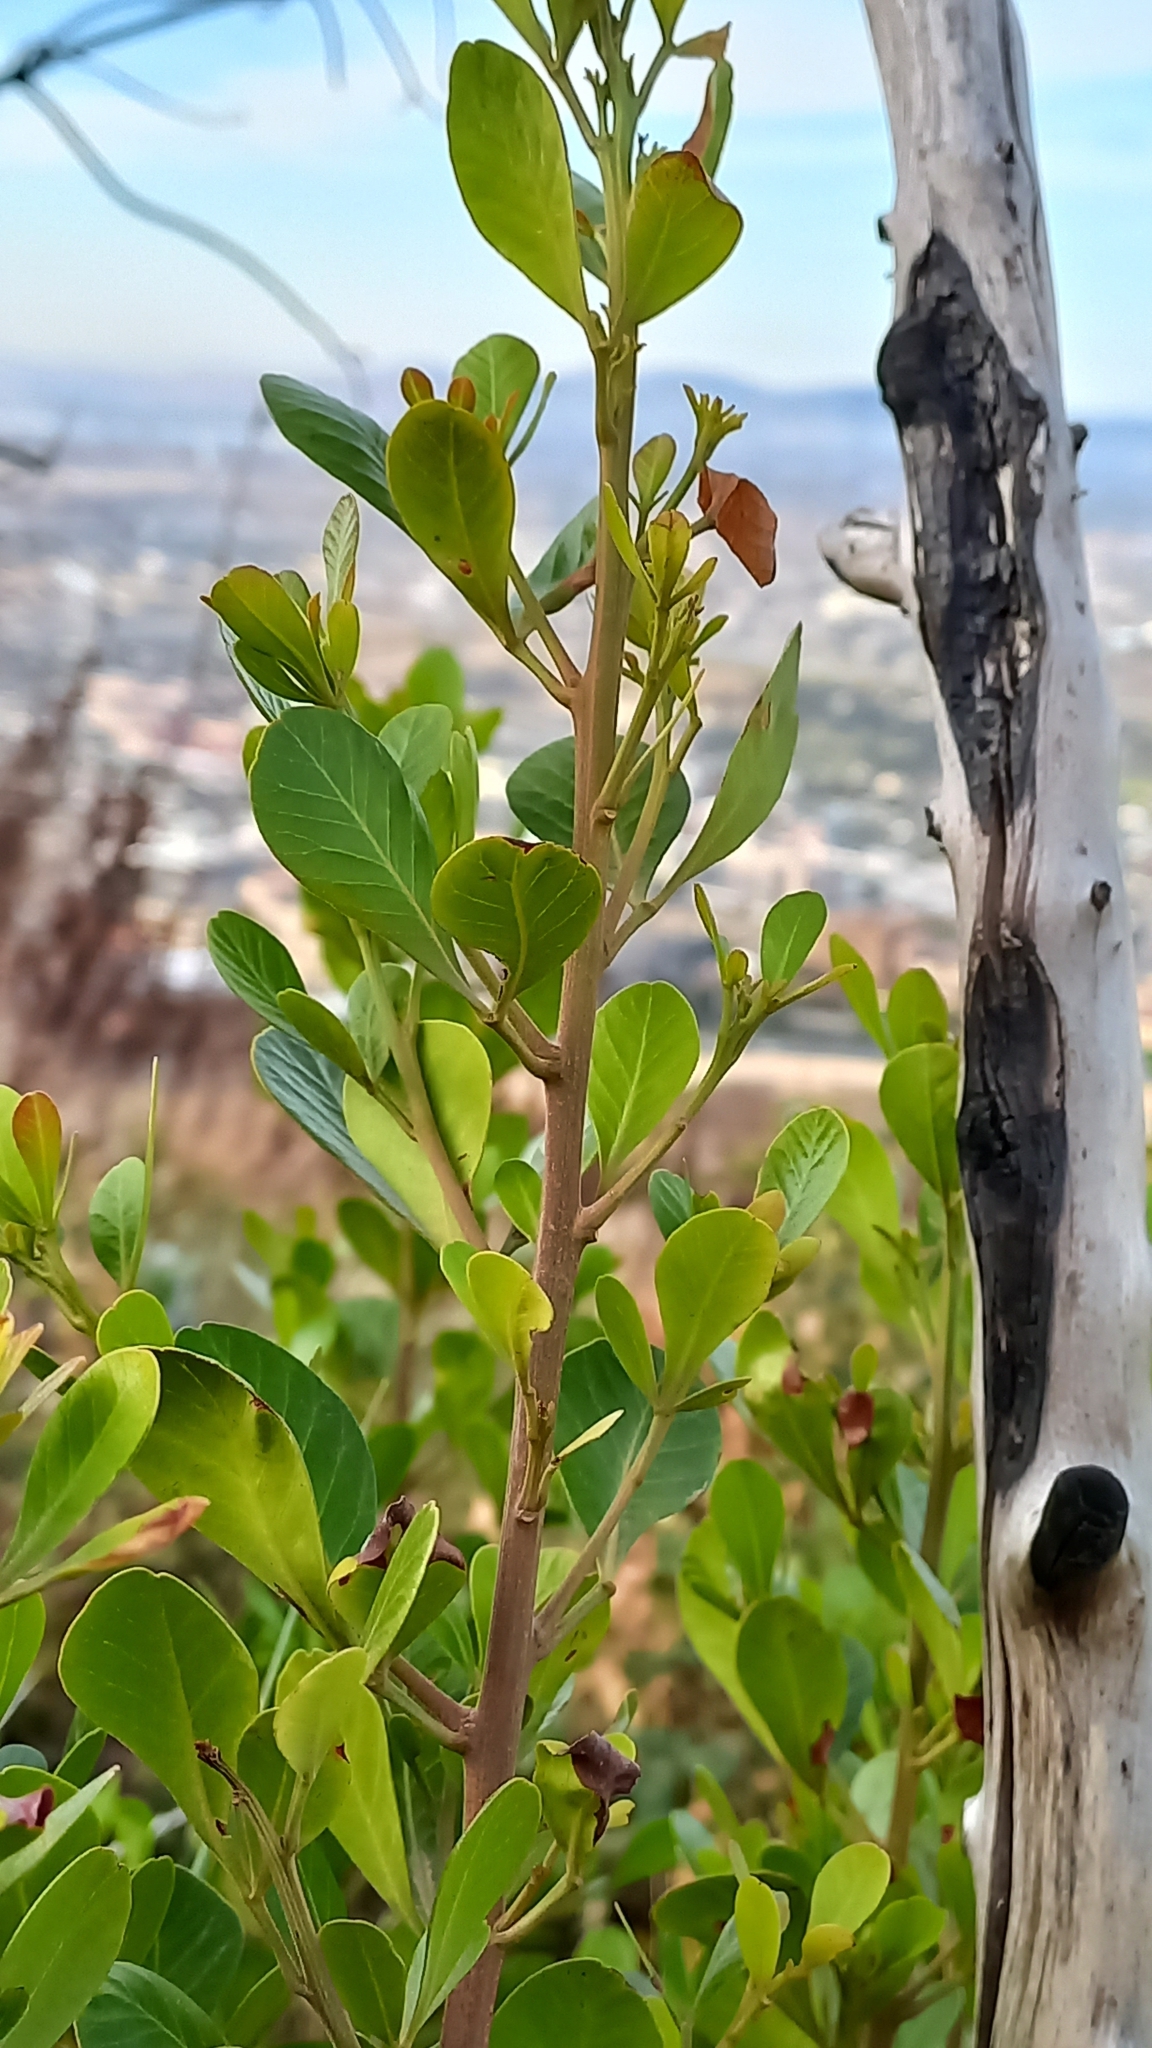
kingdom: Plantae
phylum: Tracheophyta
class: Magnoliopsida
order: Sapindales
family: Anacardiaceae
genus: Searsia
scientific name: Searsia lucida
